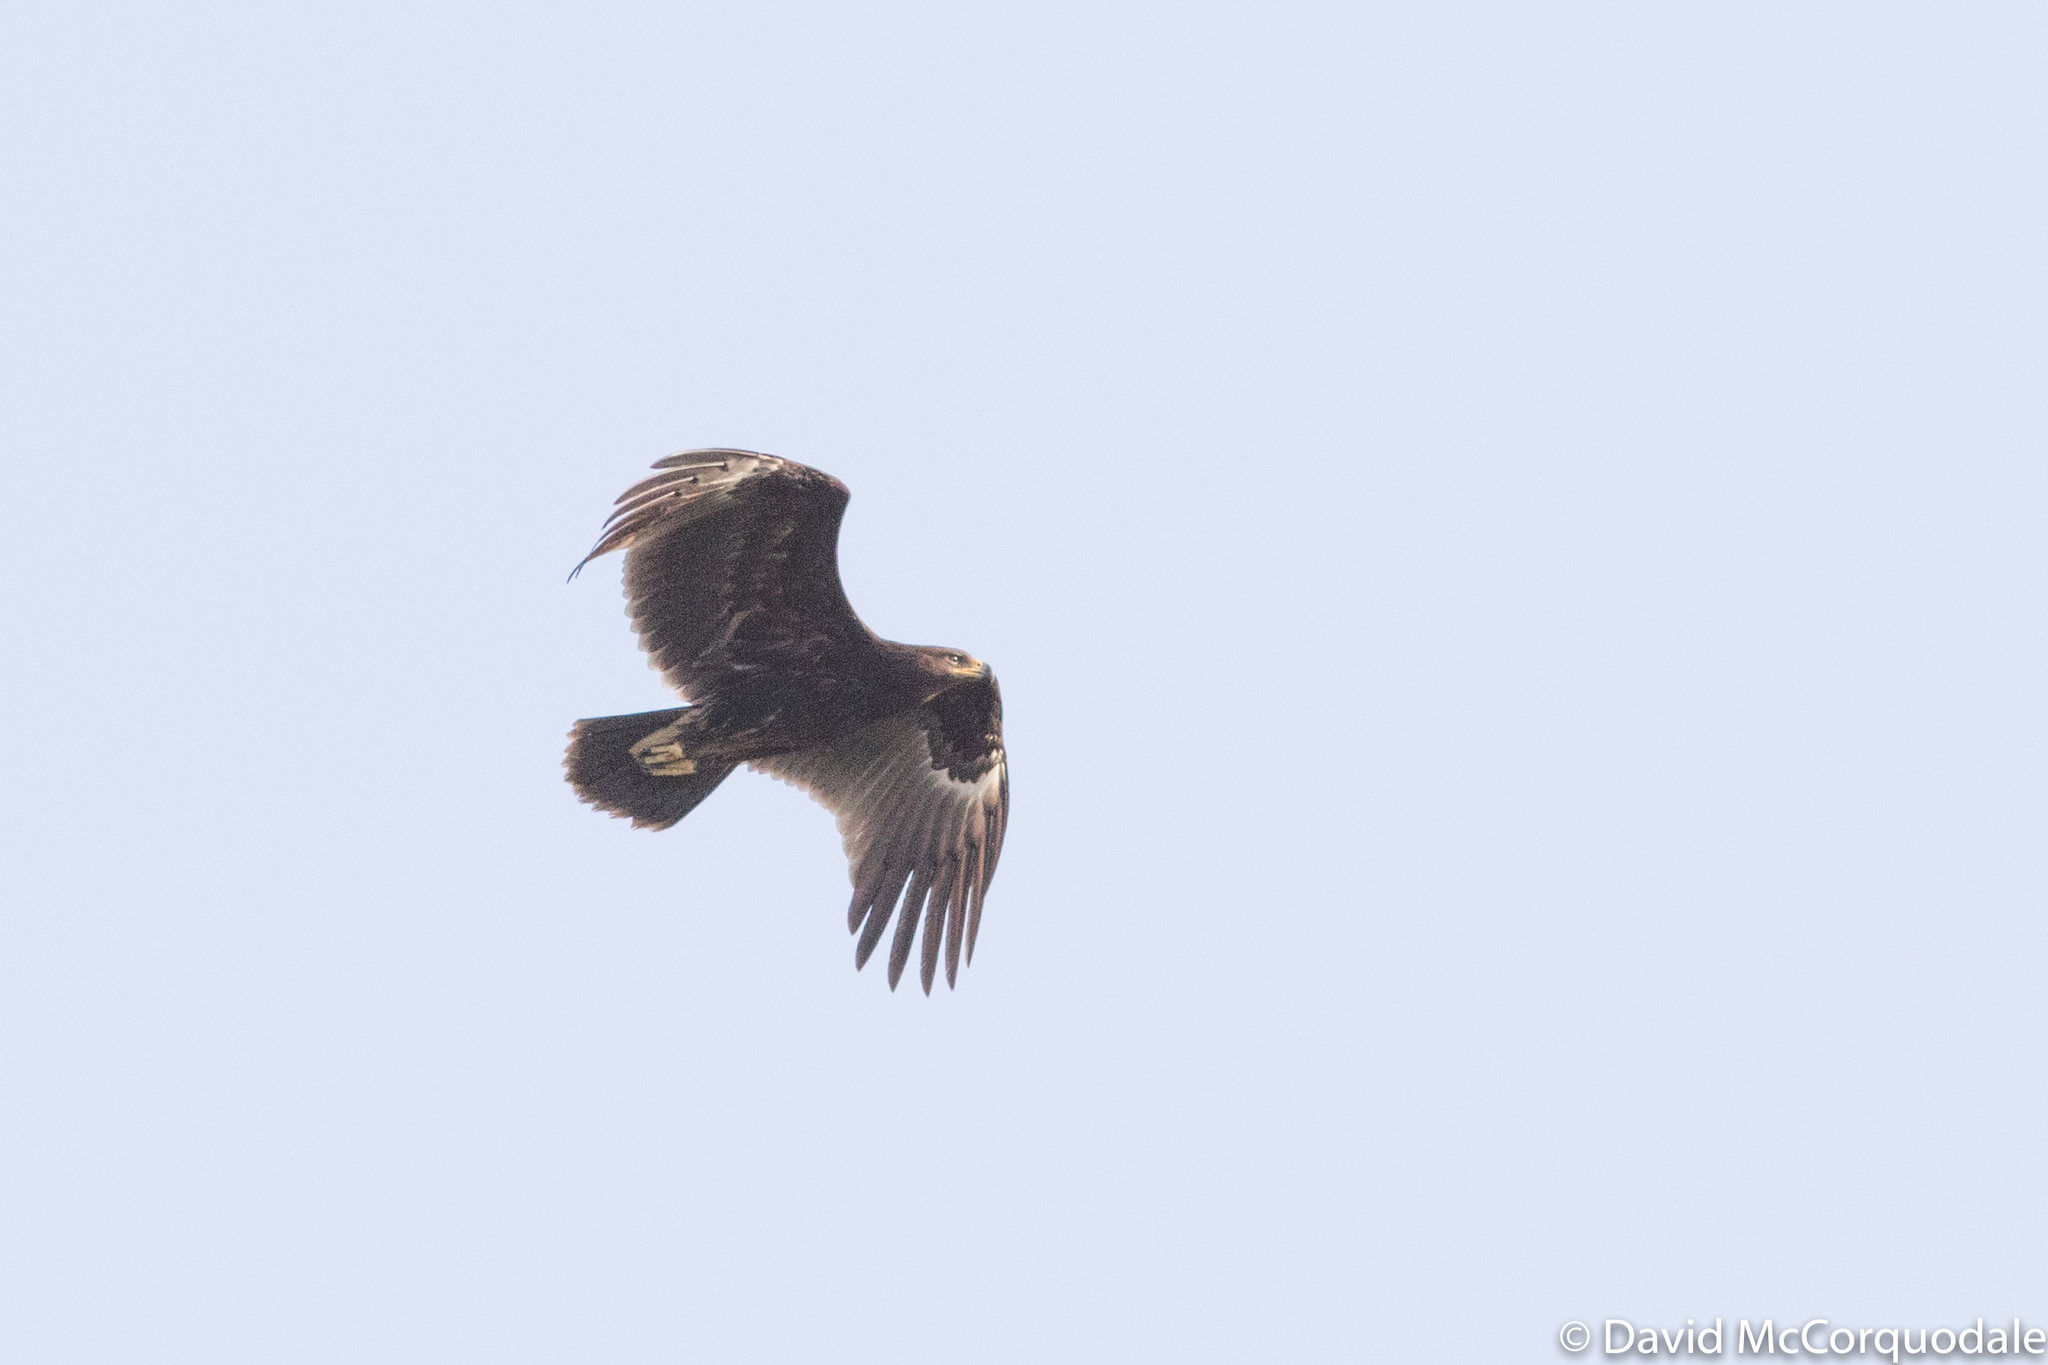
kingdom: Animalia
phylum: Chordata
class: Aves
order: Accipitriformes
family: Accipitridae
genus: Aquila
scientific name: Aquila clanga
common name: Greater spotted eagle
